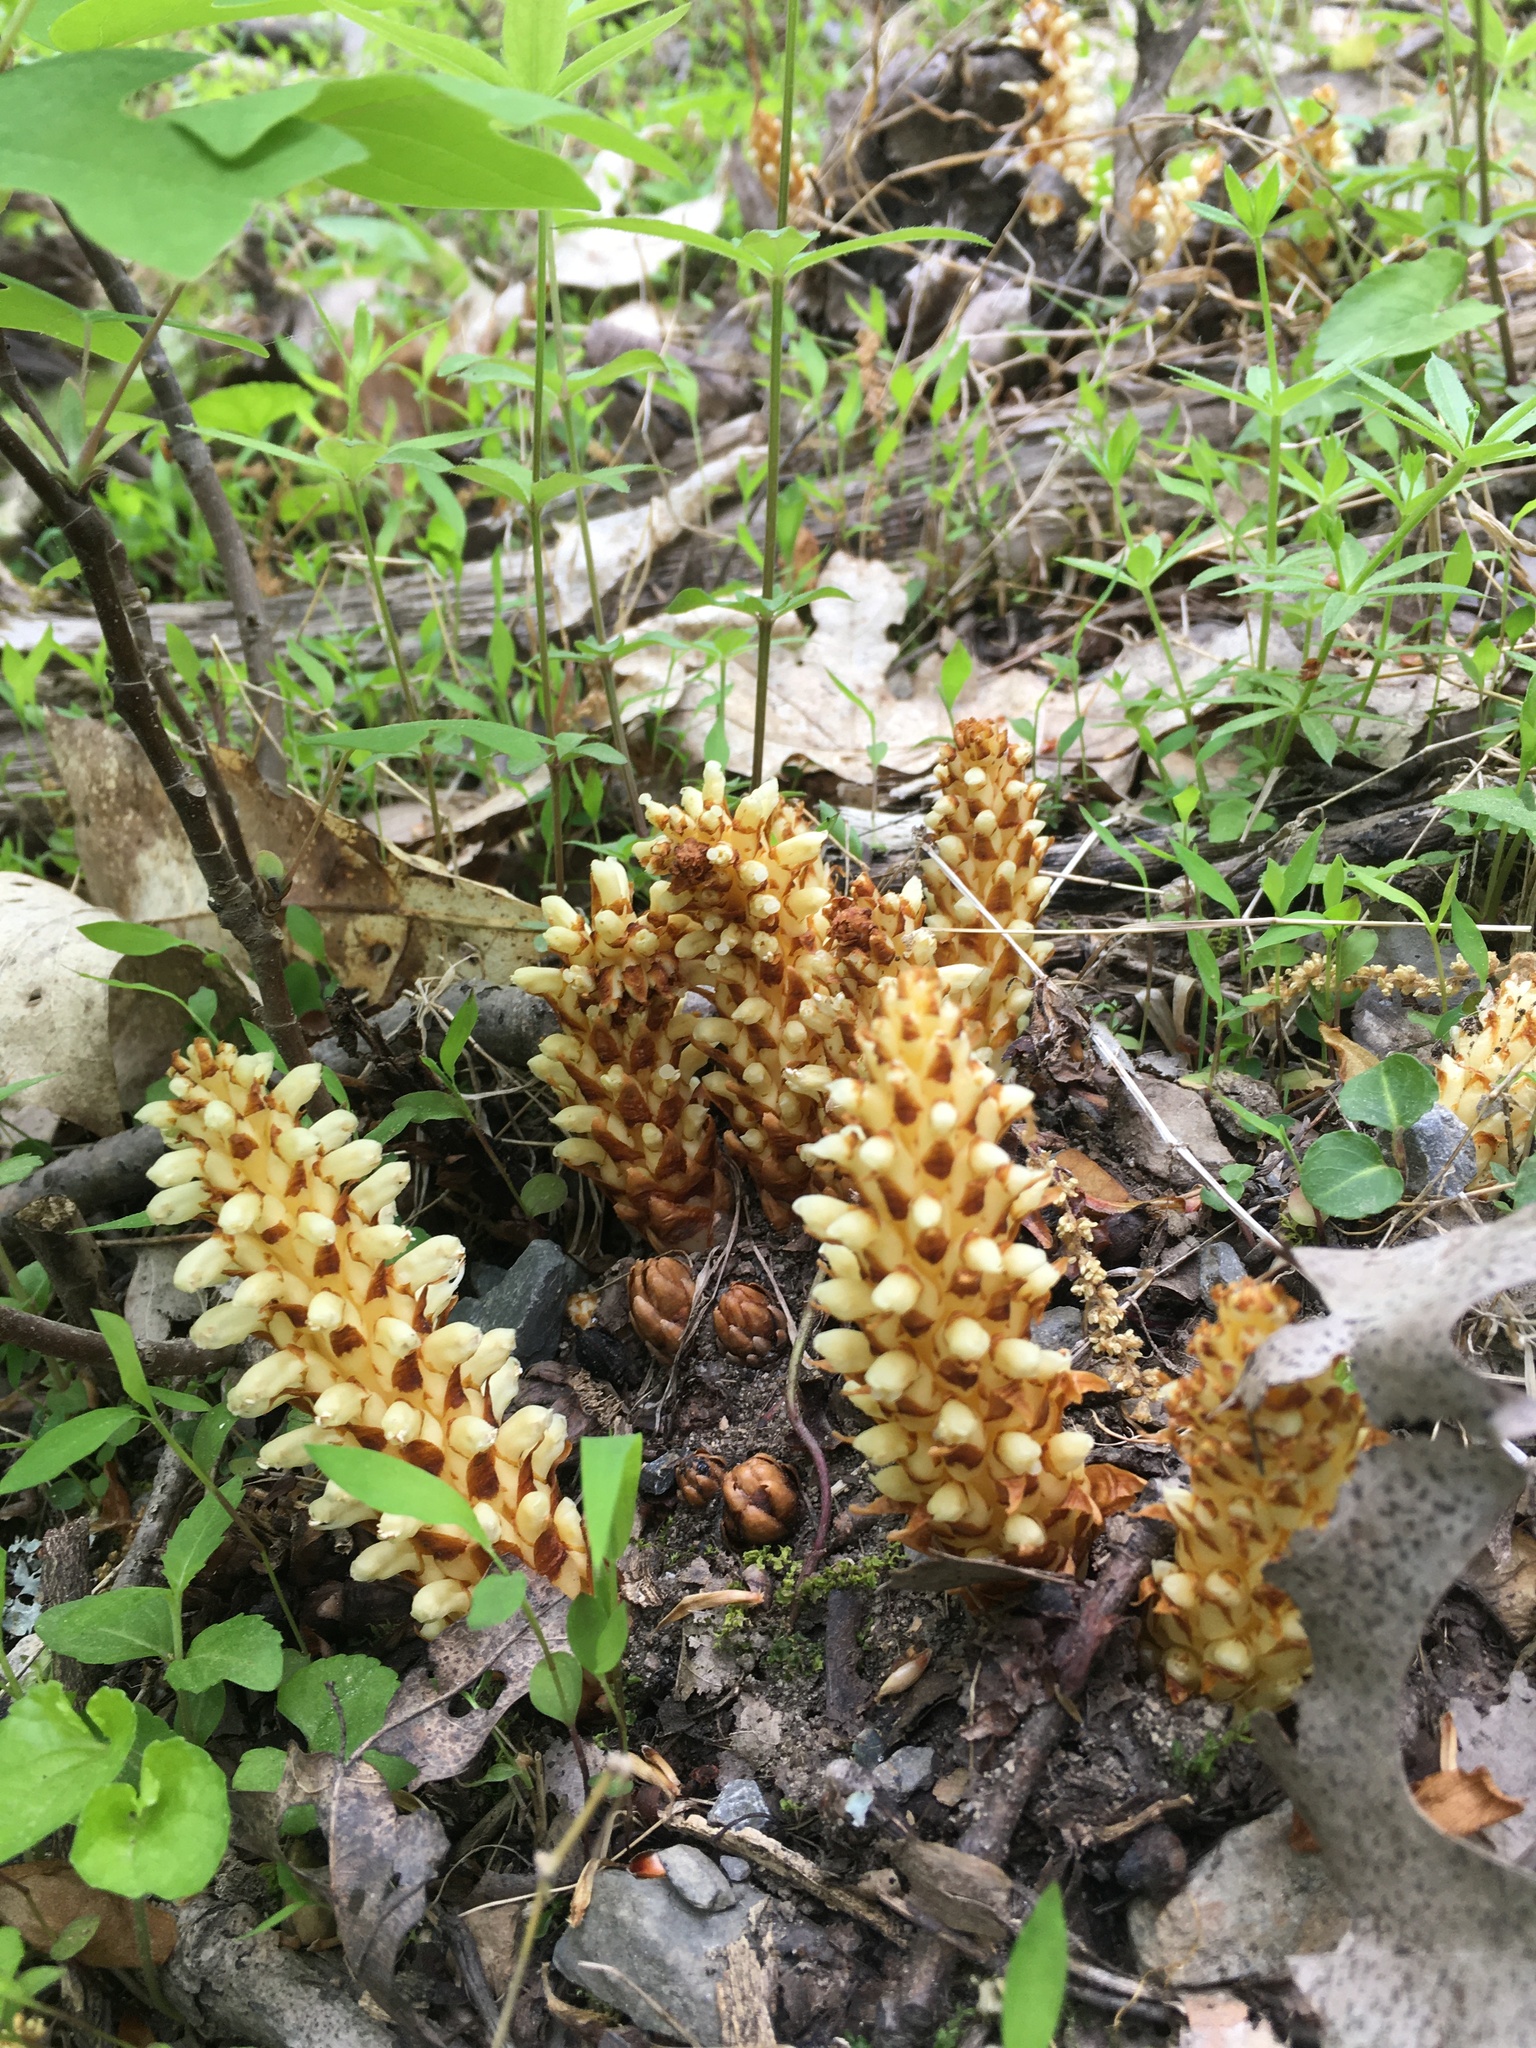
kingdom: Plantae
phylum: Tracheophyta
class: Magnoliopsida
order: Lamiales
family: Orobanchaceae
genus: Conopholis
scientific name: Conopholis americana
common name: American cancer-root
